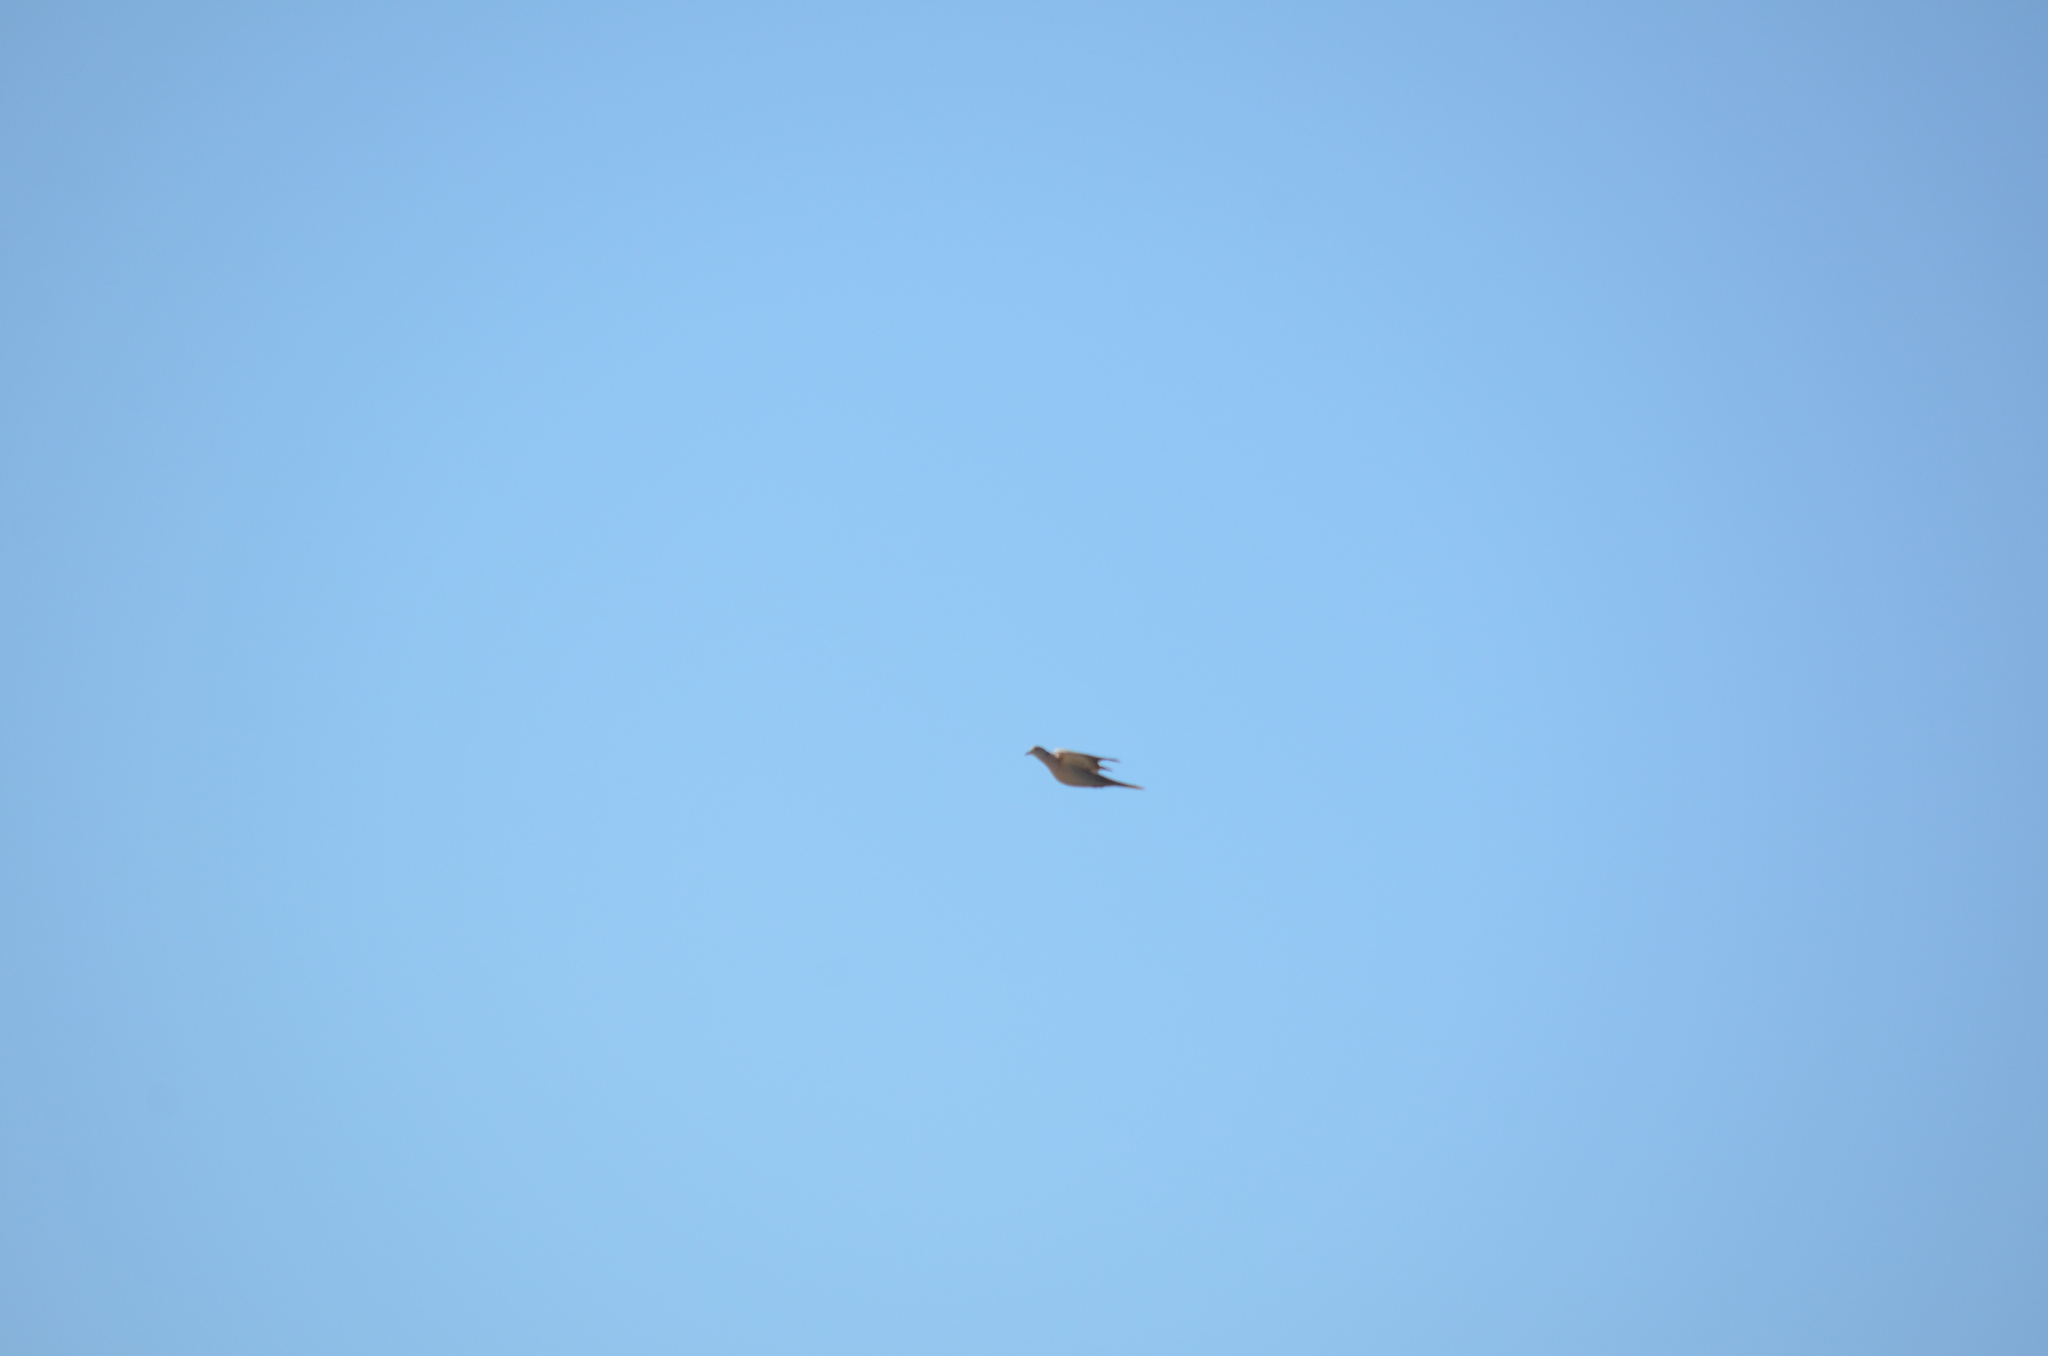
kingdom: Animalia
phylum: Chordata
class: Aves
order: Columbiformes
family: Columbidae
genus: Streptopelia
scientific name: Streptopelia decaocto
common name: Eurasian collared dove
